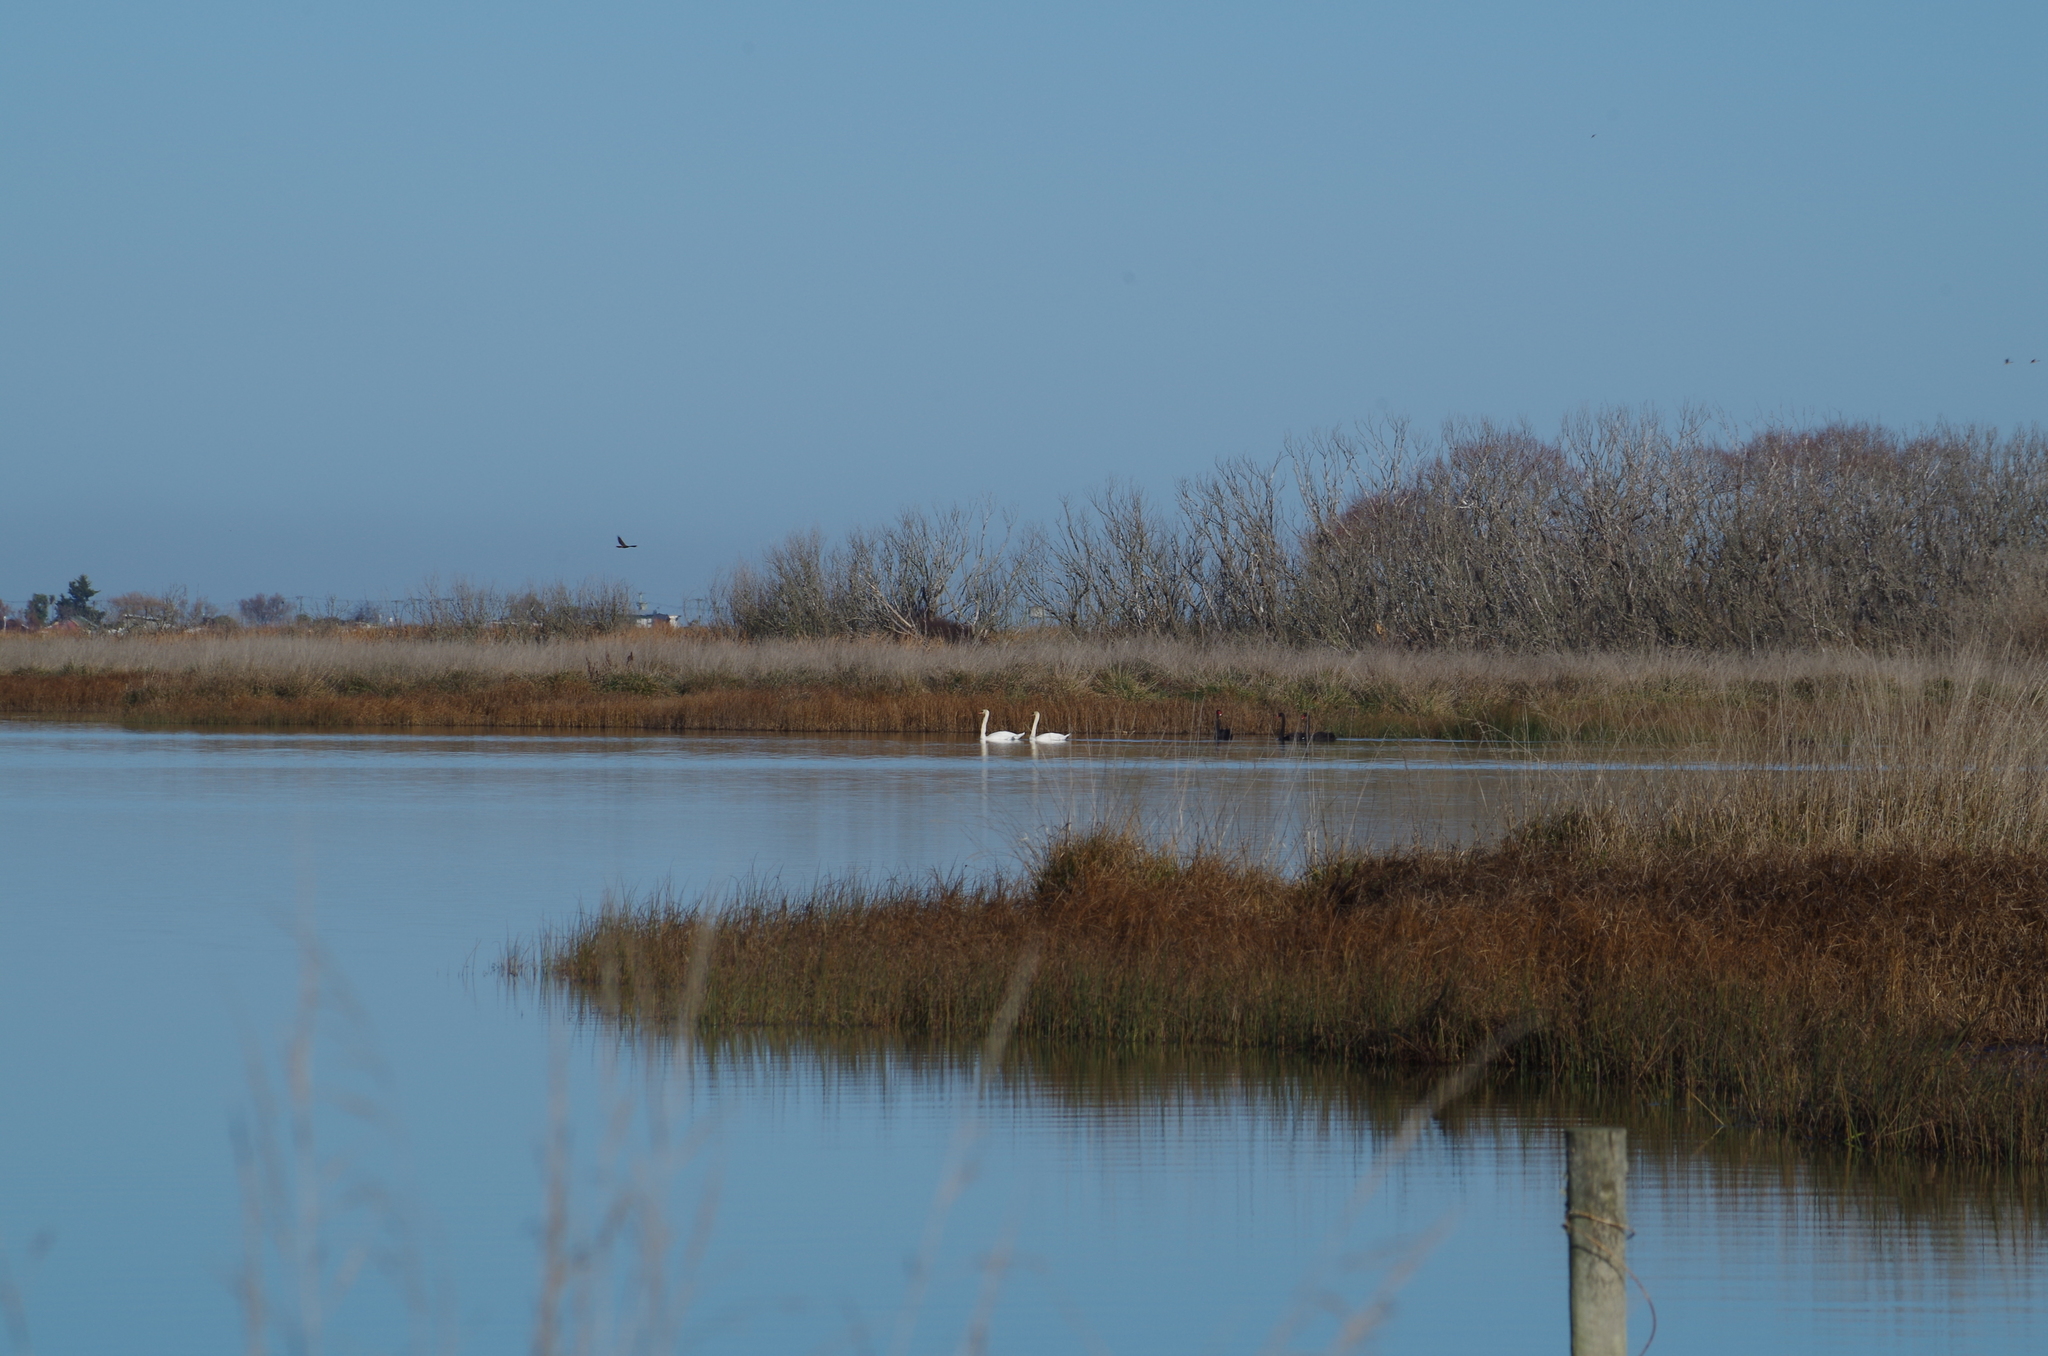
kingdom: Animalia
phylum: Chordata
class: Aves
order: Anseriformes
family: Anatidae
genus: Cygnus
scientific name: Cygnus olor
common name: Mute swan
